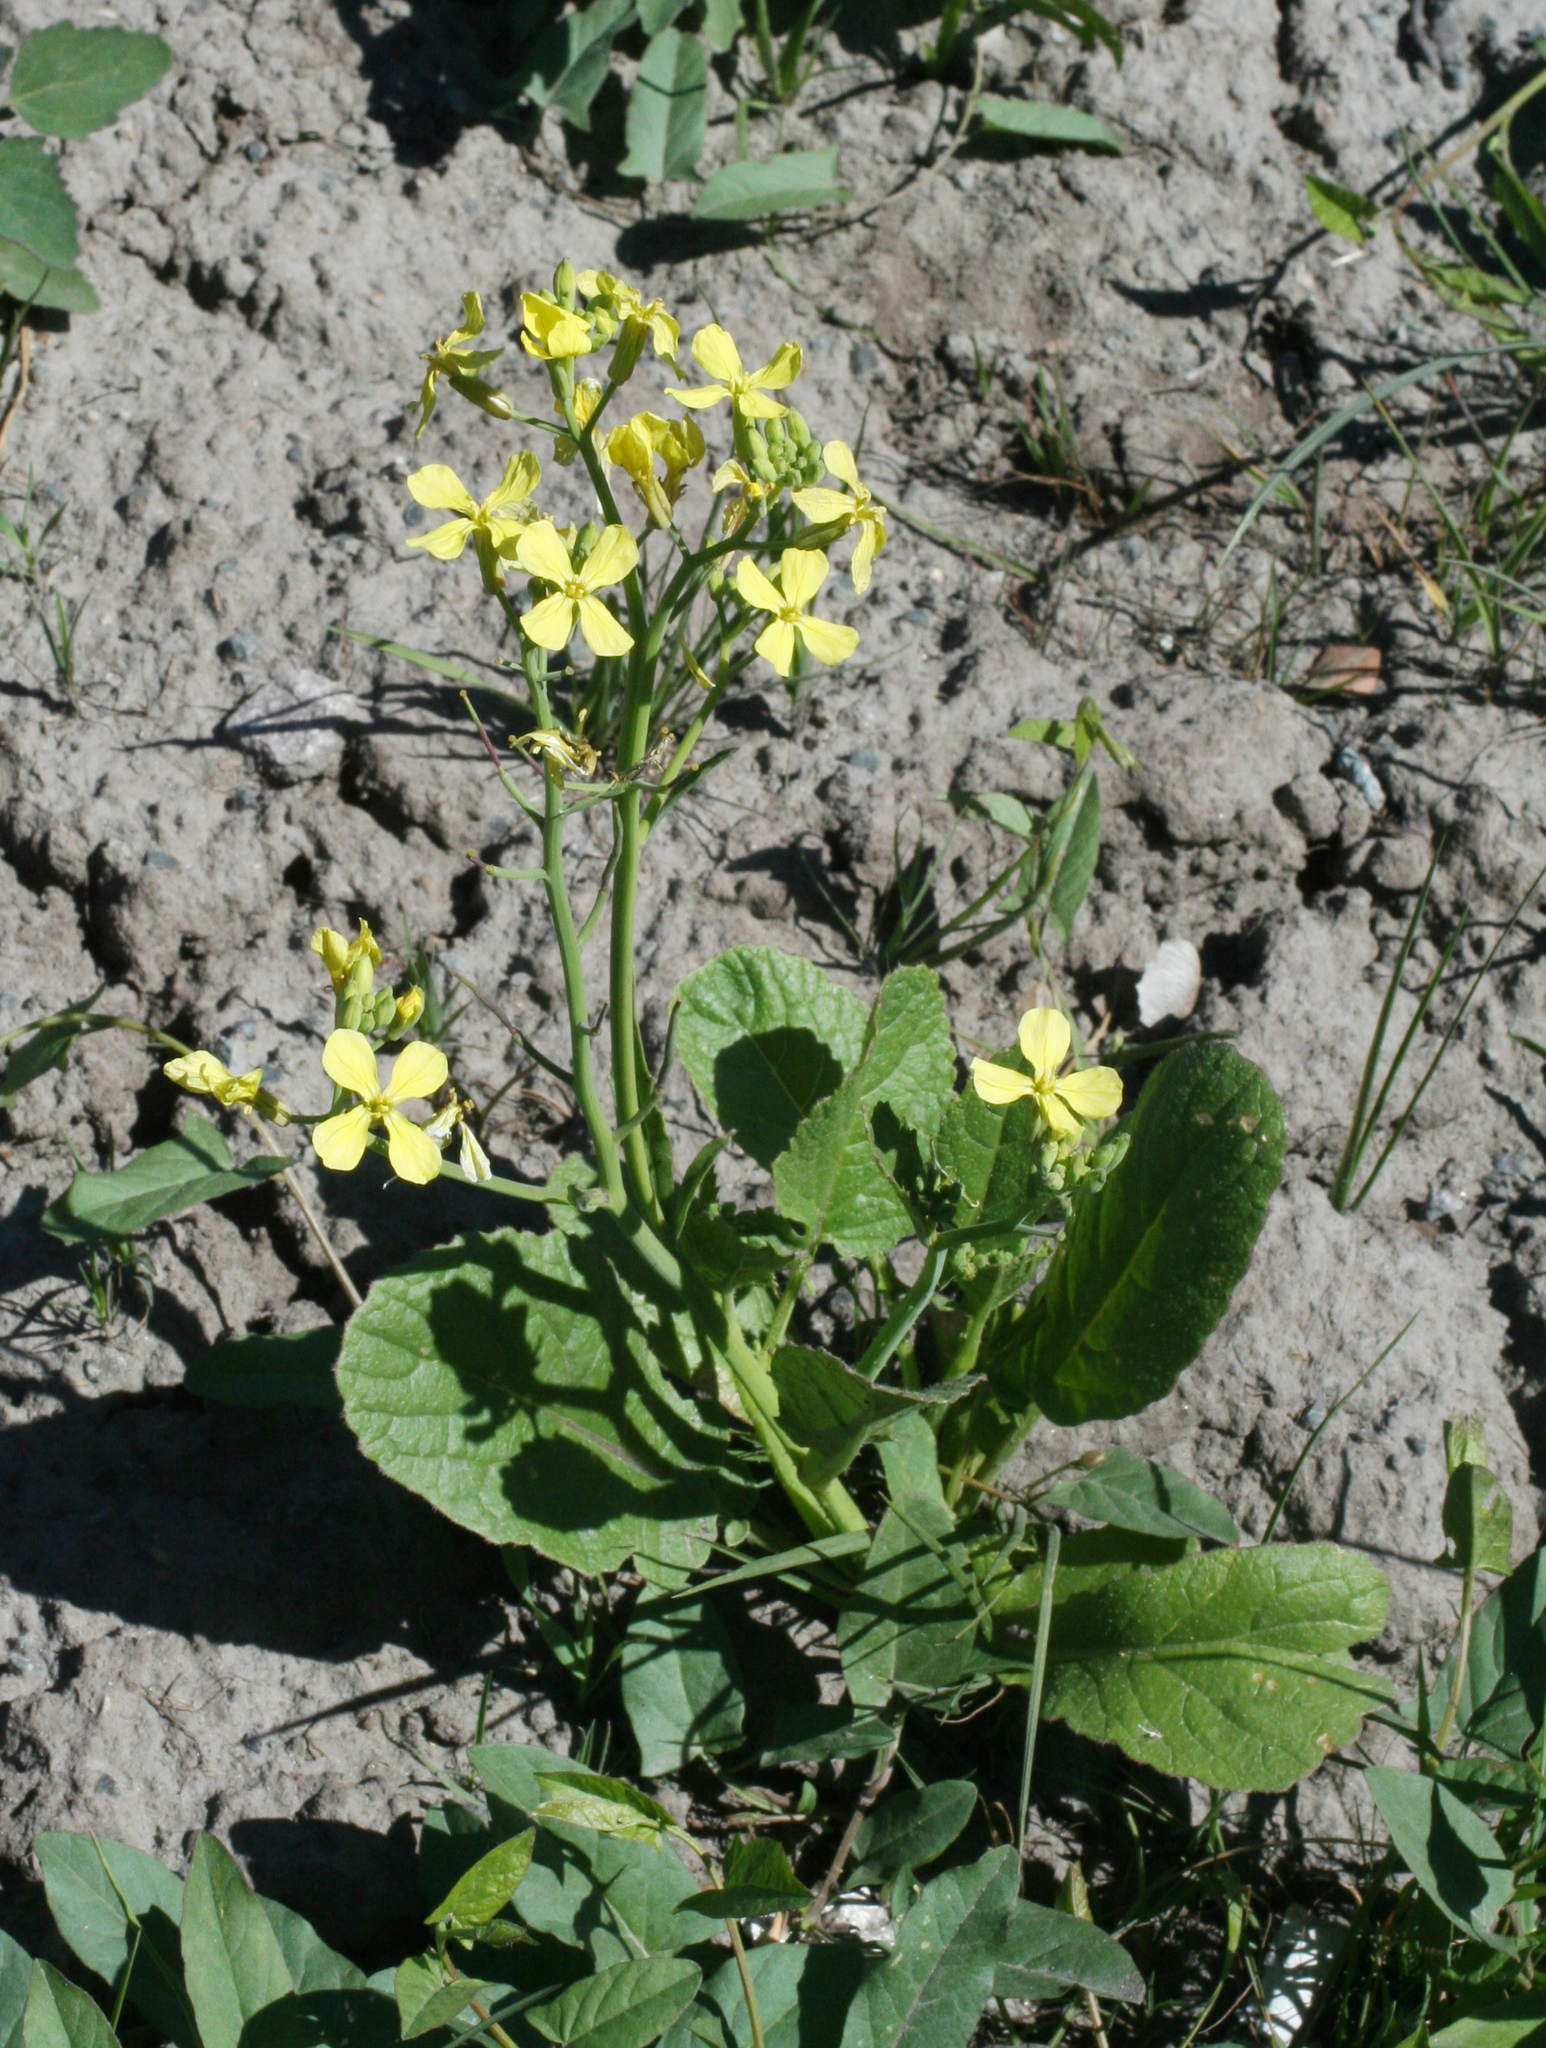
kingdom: Plantae
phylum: Tracheophyta
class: Magnoliopsida
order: Brassicales
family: Brassicaceae
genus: Raphanus
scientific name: Raphanus raphanistrum
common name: Wild radish
